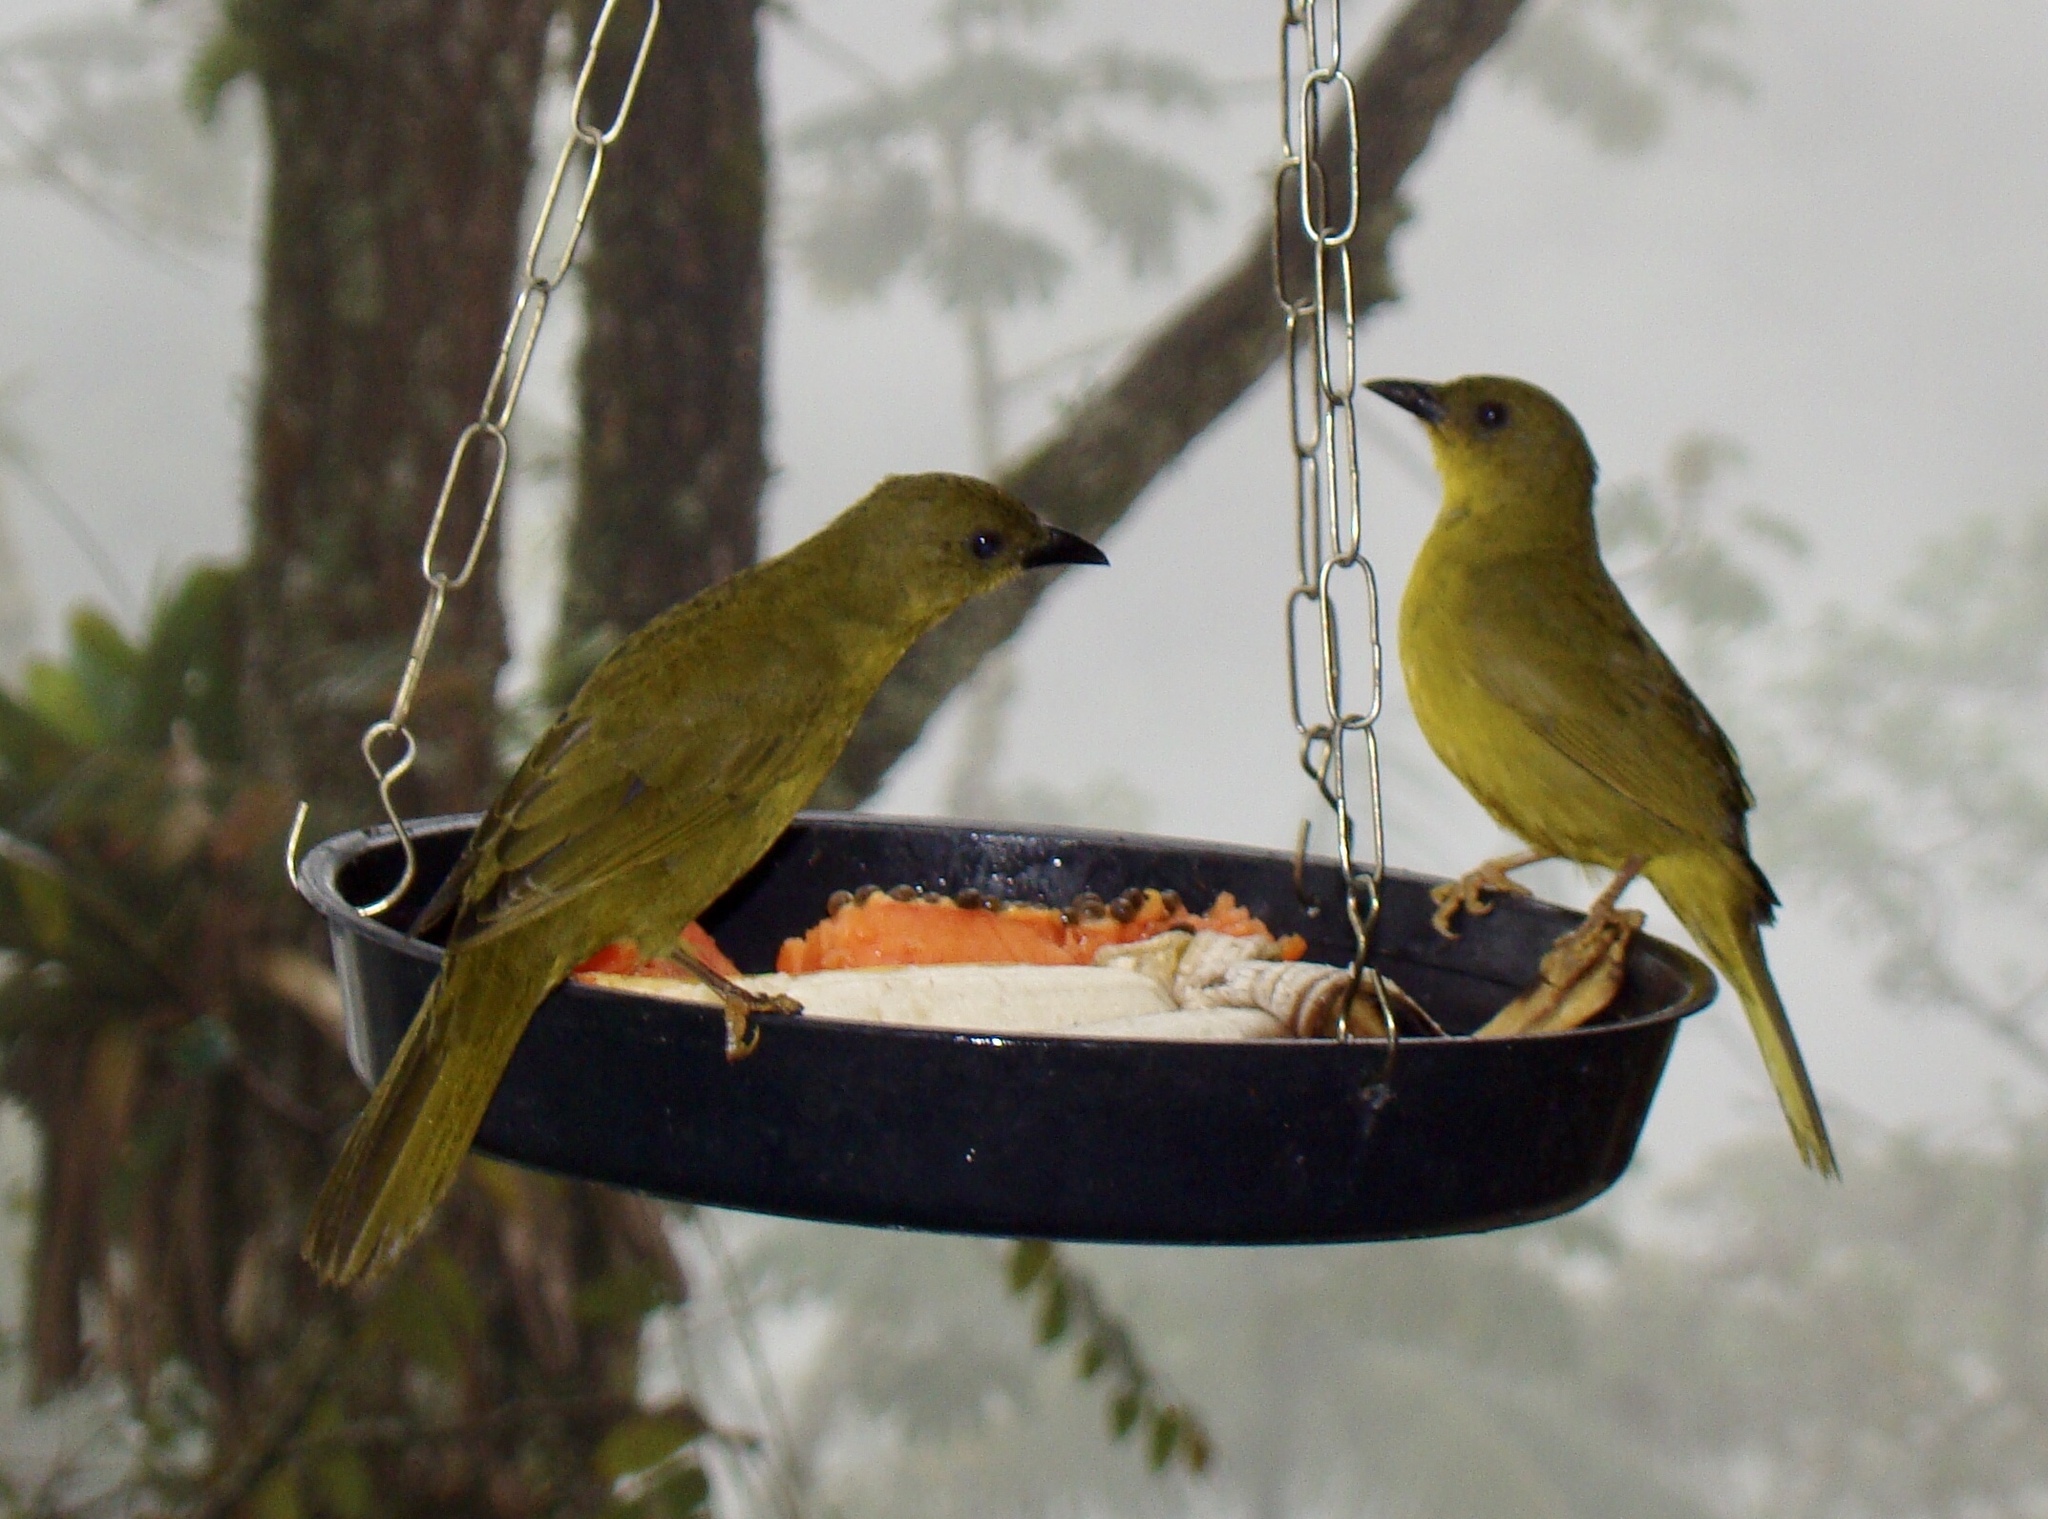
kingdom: Animalia
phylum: Chordata
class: Aves
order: Passeriformes
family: Mitrospingidae
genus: Orthogonys
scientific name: Orthogonys chloricterus
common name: Olive-green tanager
